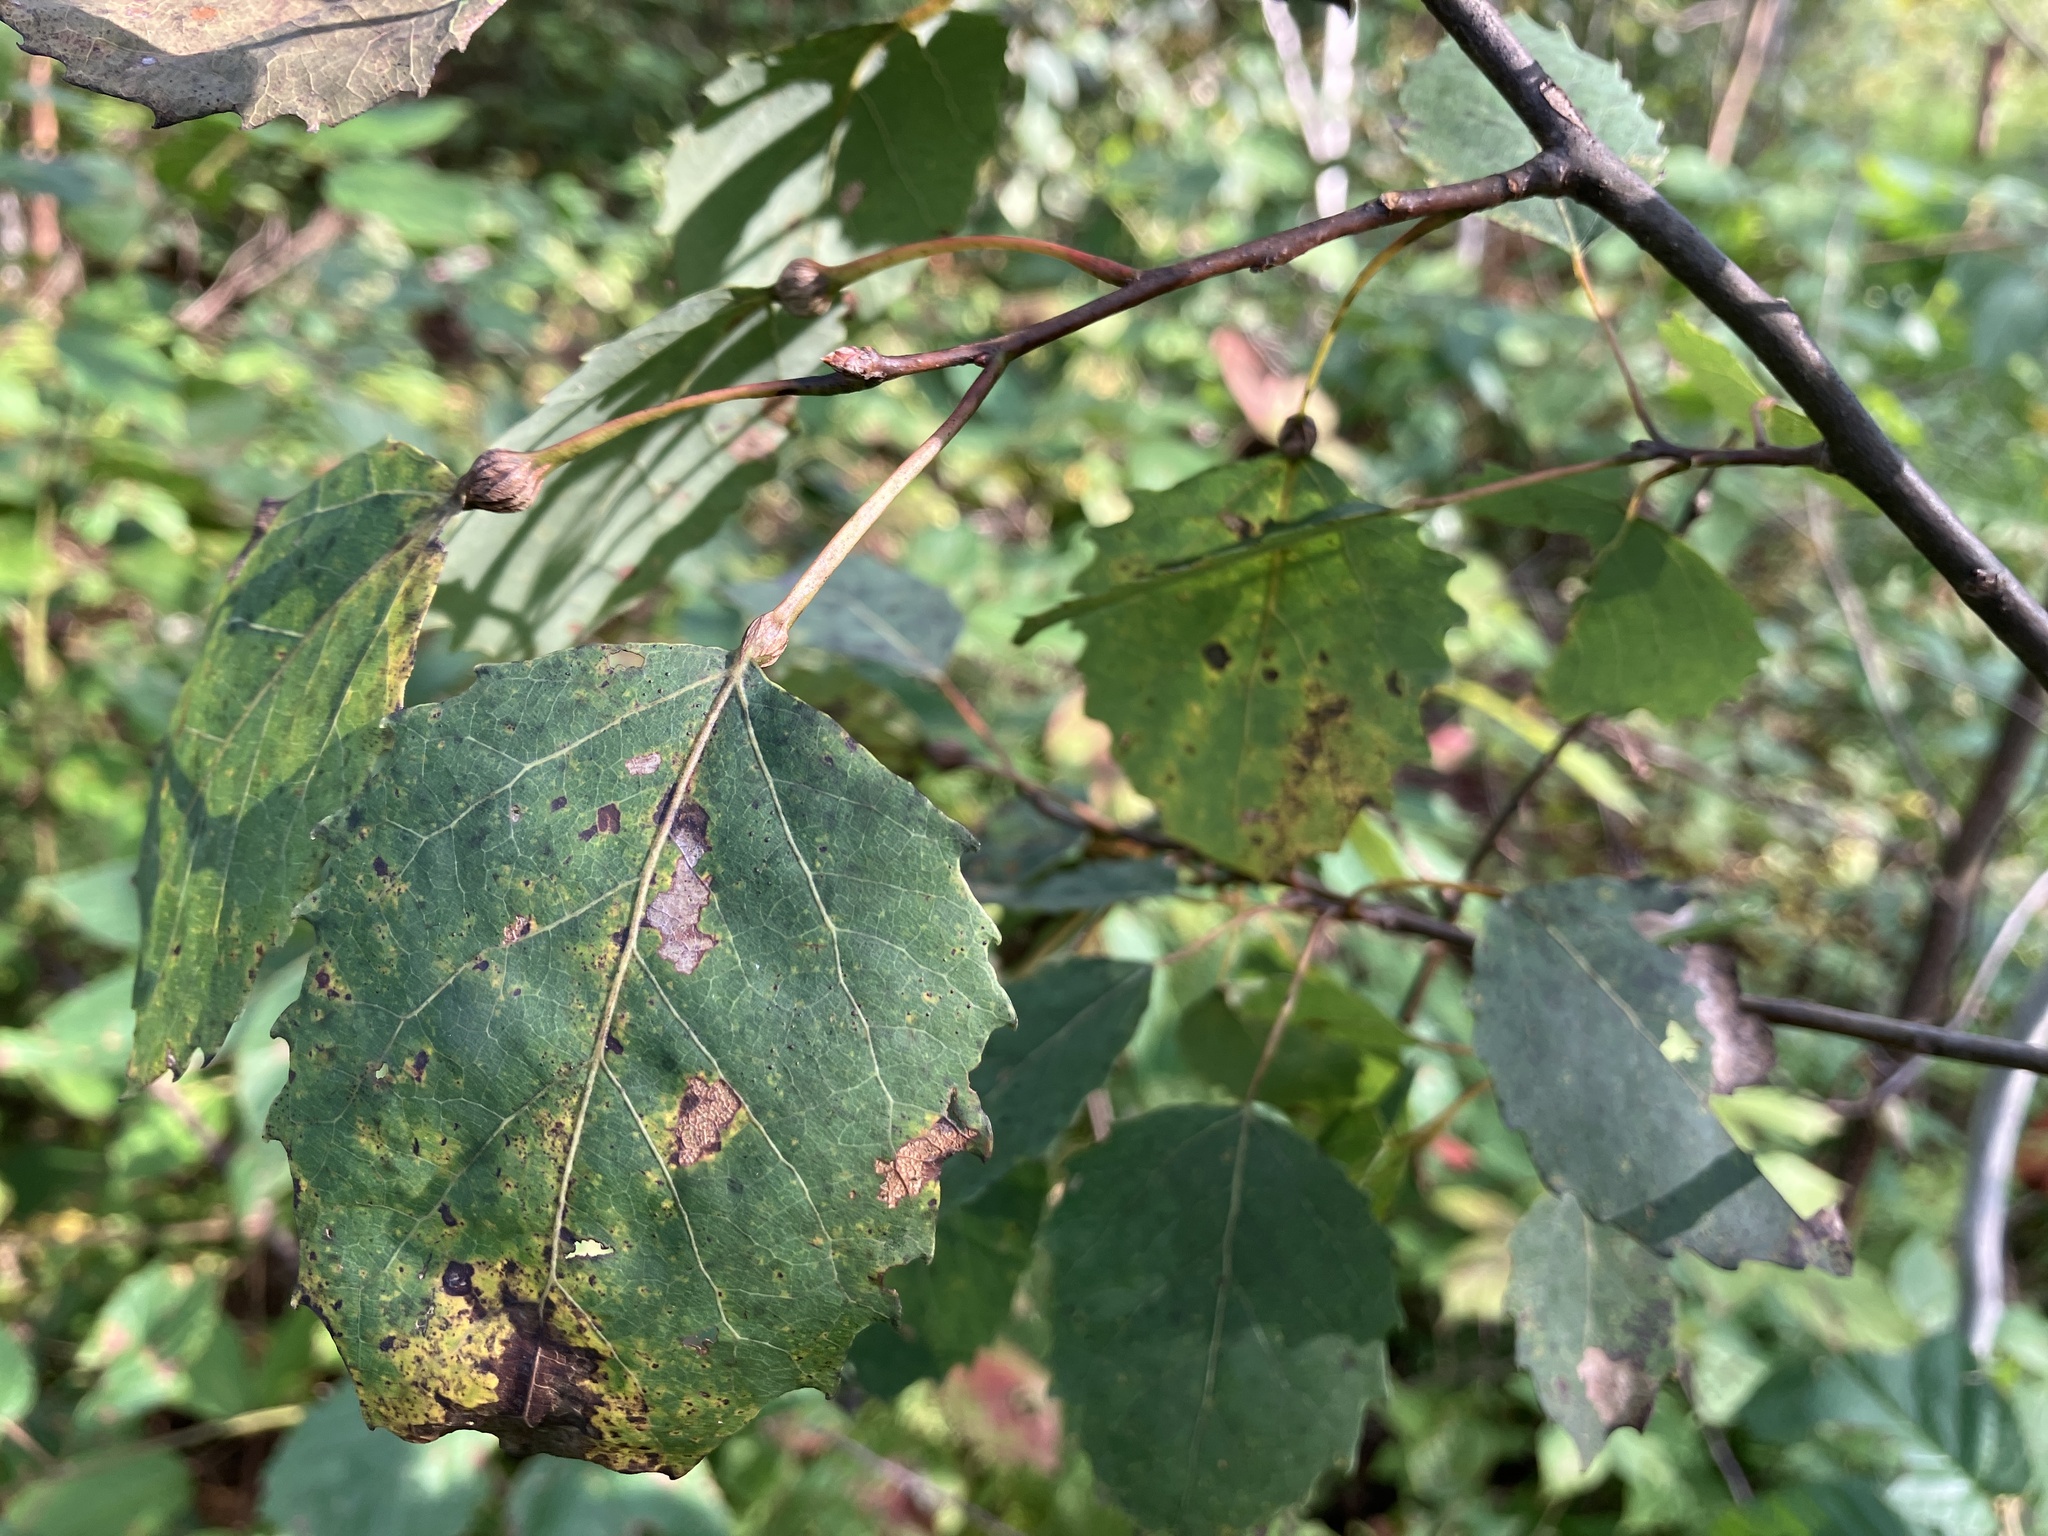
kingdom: Plantae
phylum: Tracheophyta
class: Magnoliopsida
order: Malpighiales
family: Salicaceae
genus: Populus
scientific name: Populus grandidentata
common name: Bigtooth aspen
